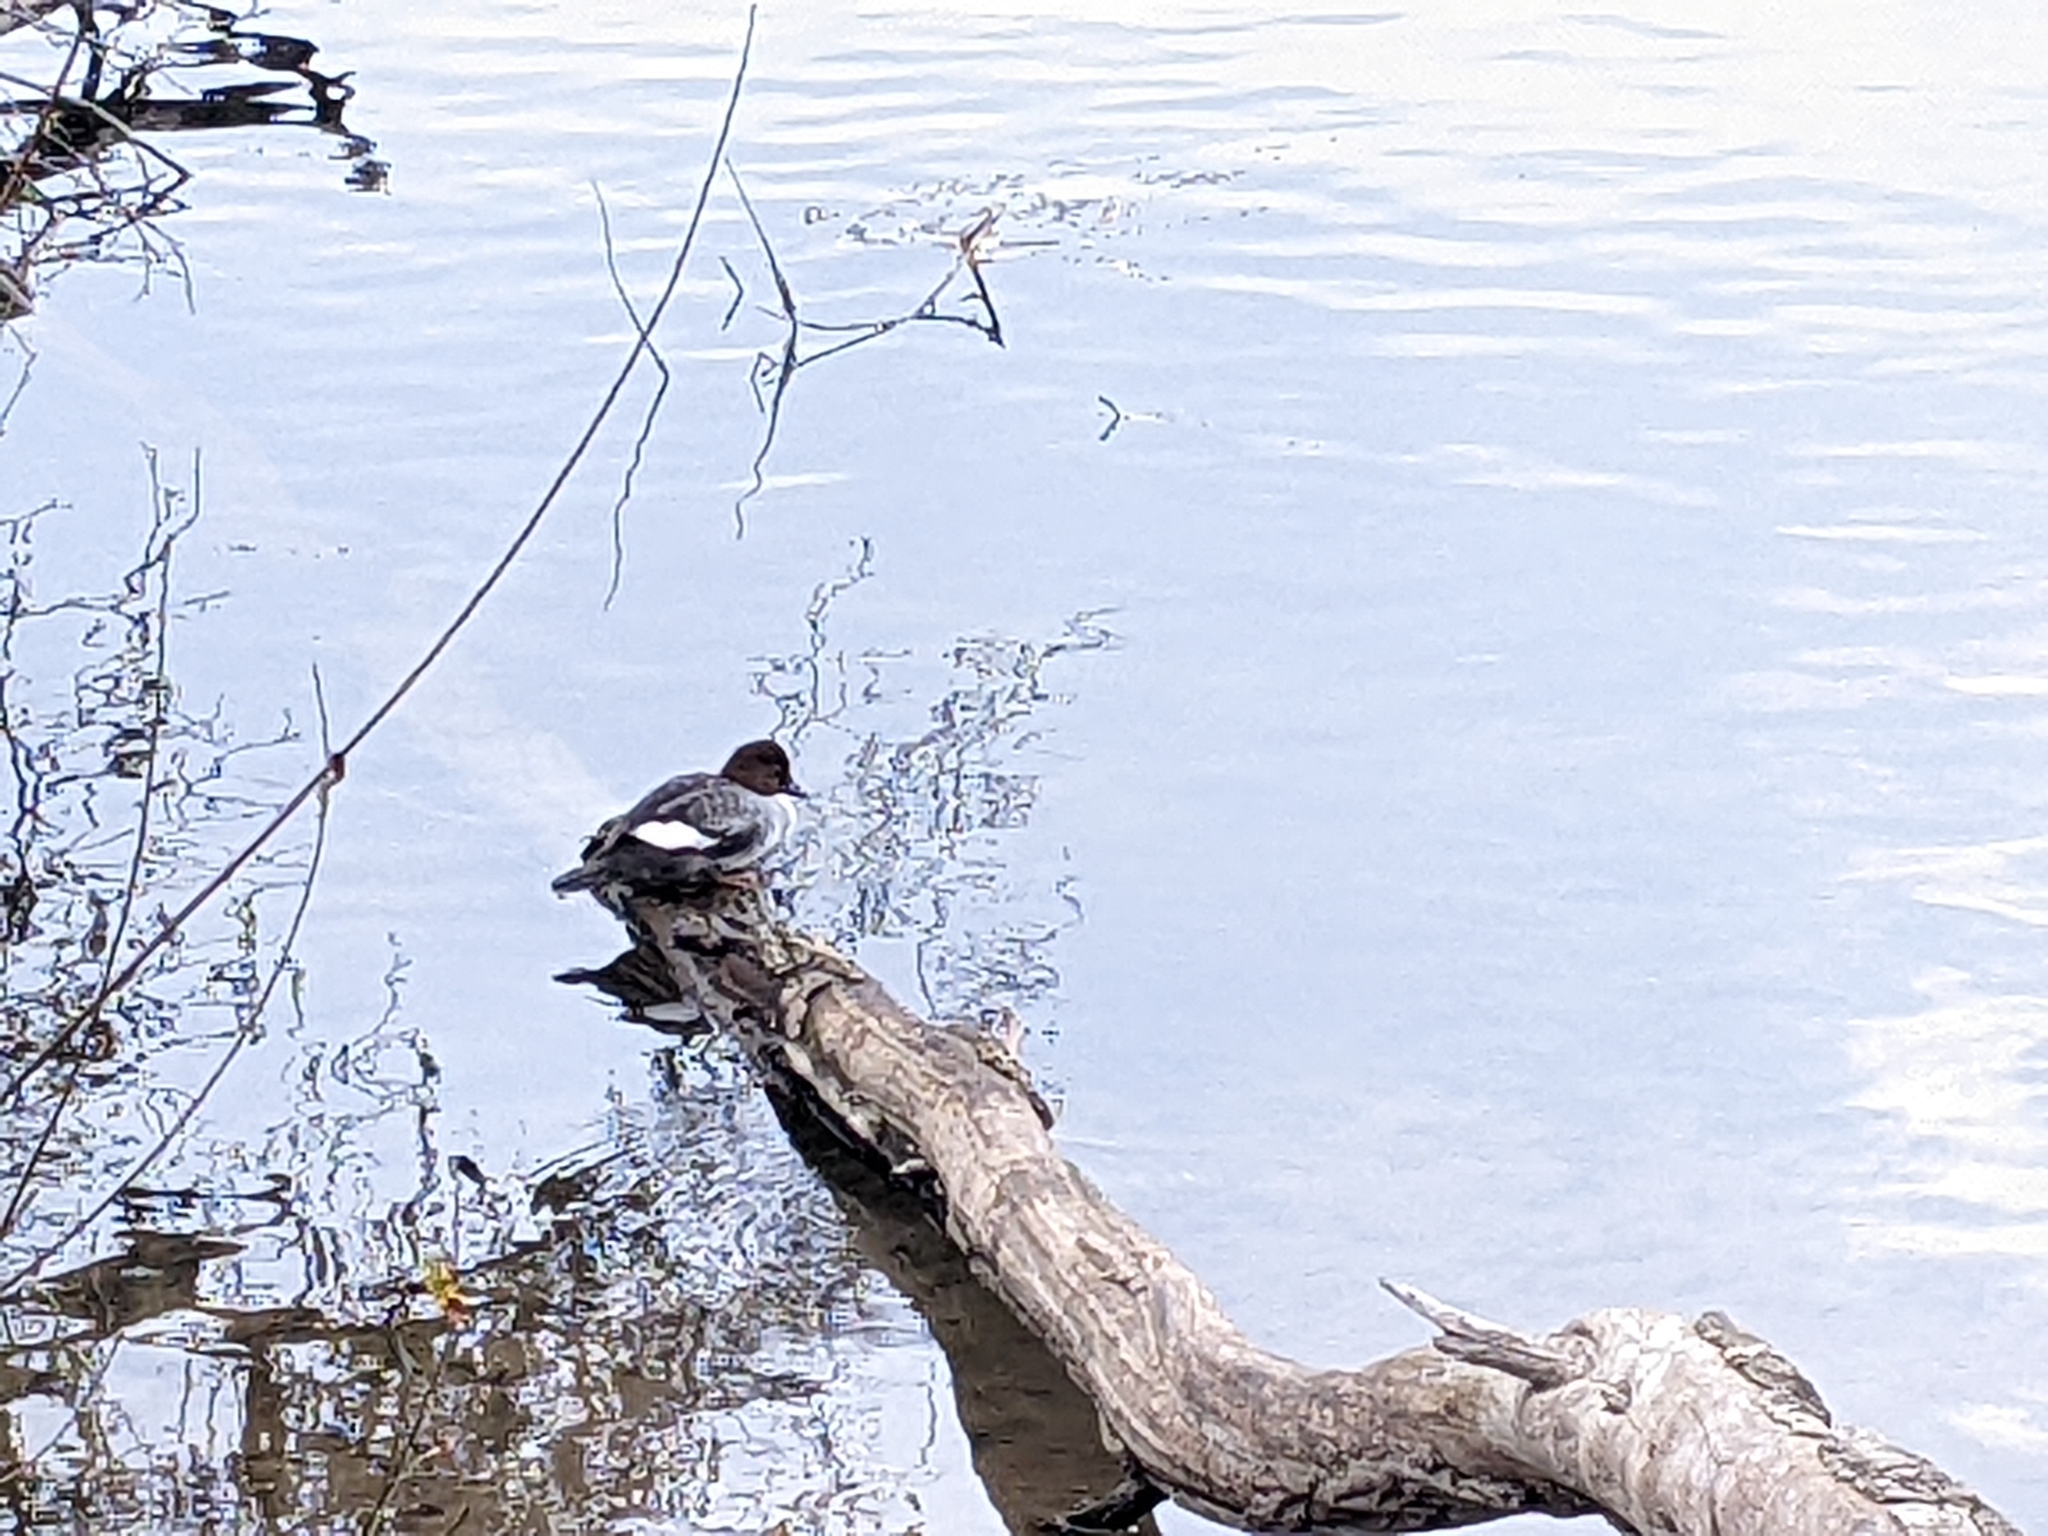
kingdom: Animalia
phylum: Chordata
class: Aves
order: Anseriformes
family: Anatidae
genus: Bucephala
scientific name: Bucephala clangula
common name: Common goldeneye
